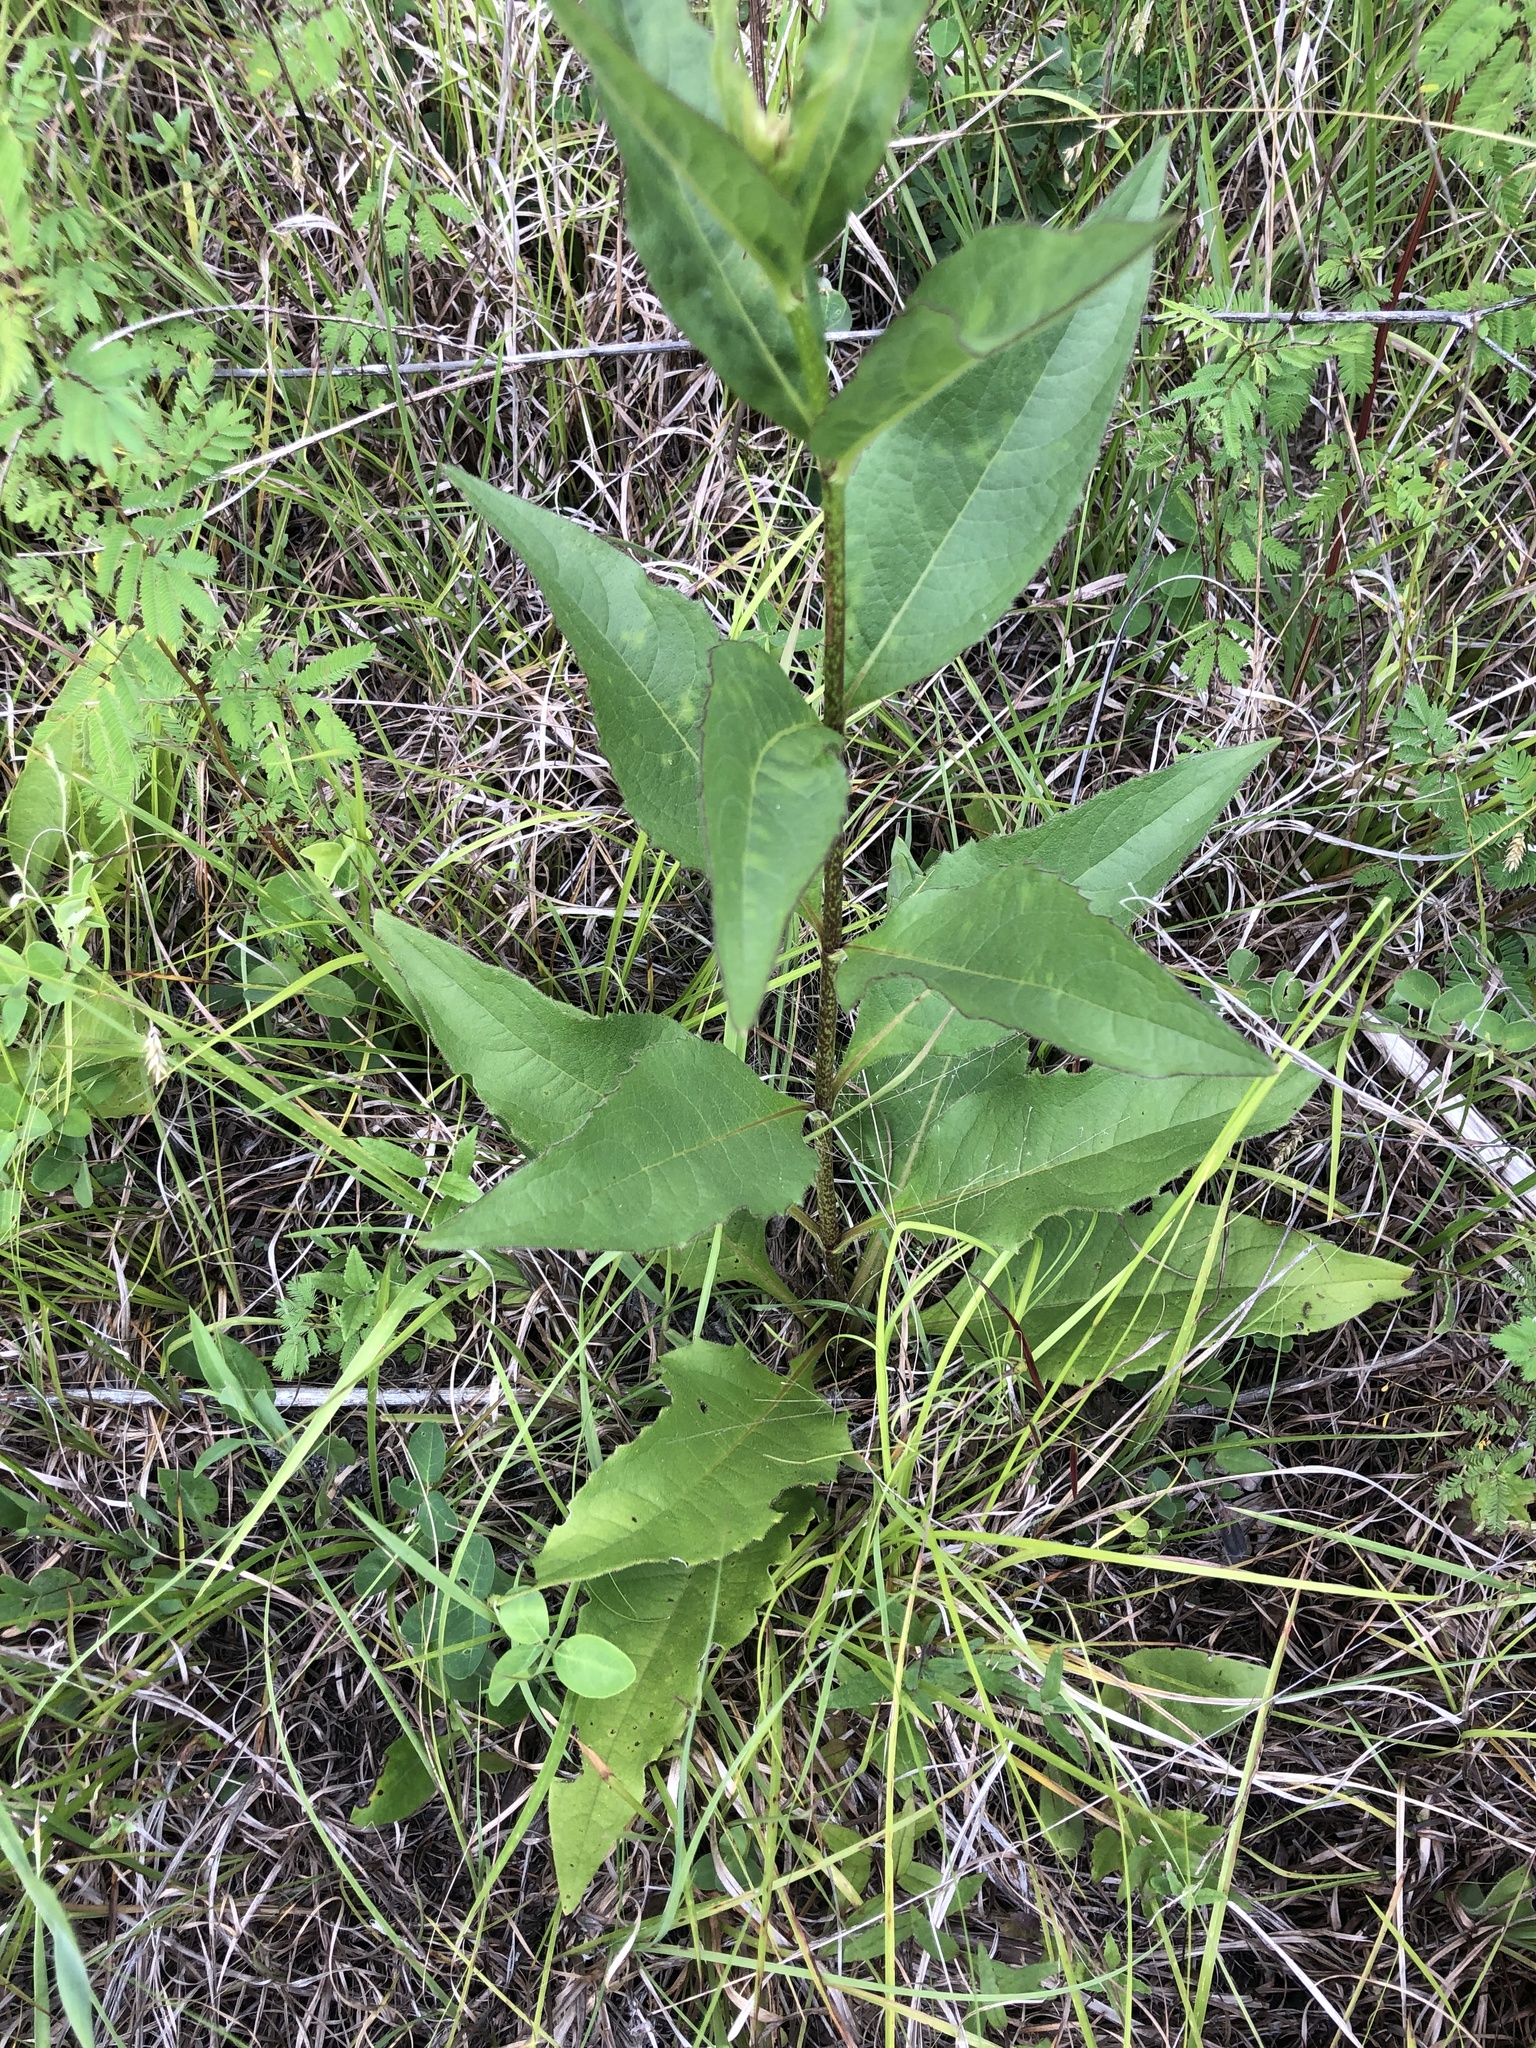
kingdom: Plantae
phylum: Tracheophyta
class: Magnoliopsida
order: Asterales
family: Asteraceae
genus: Silphium
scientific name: Silphium confertifolium
